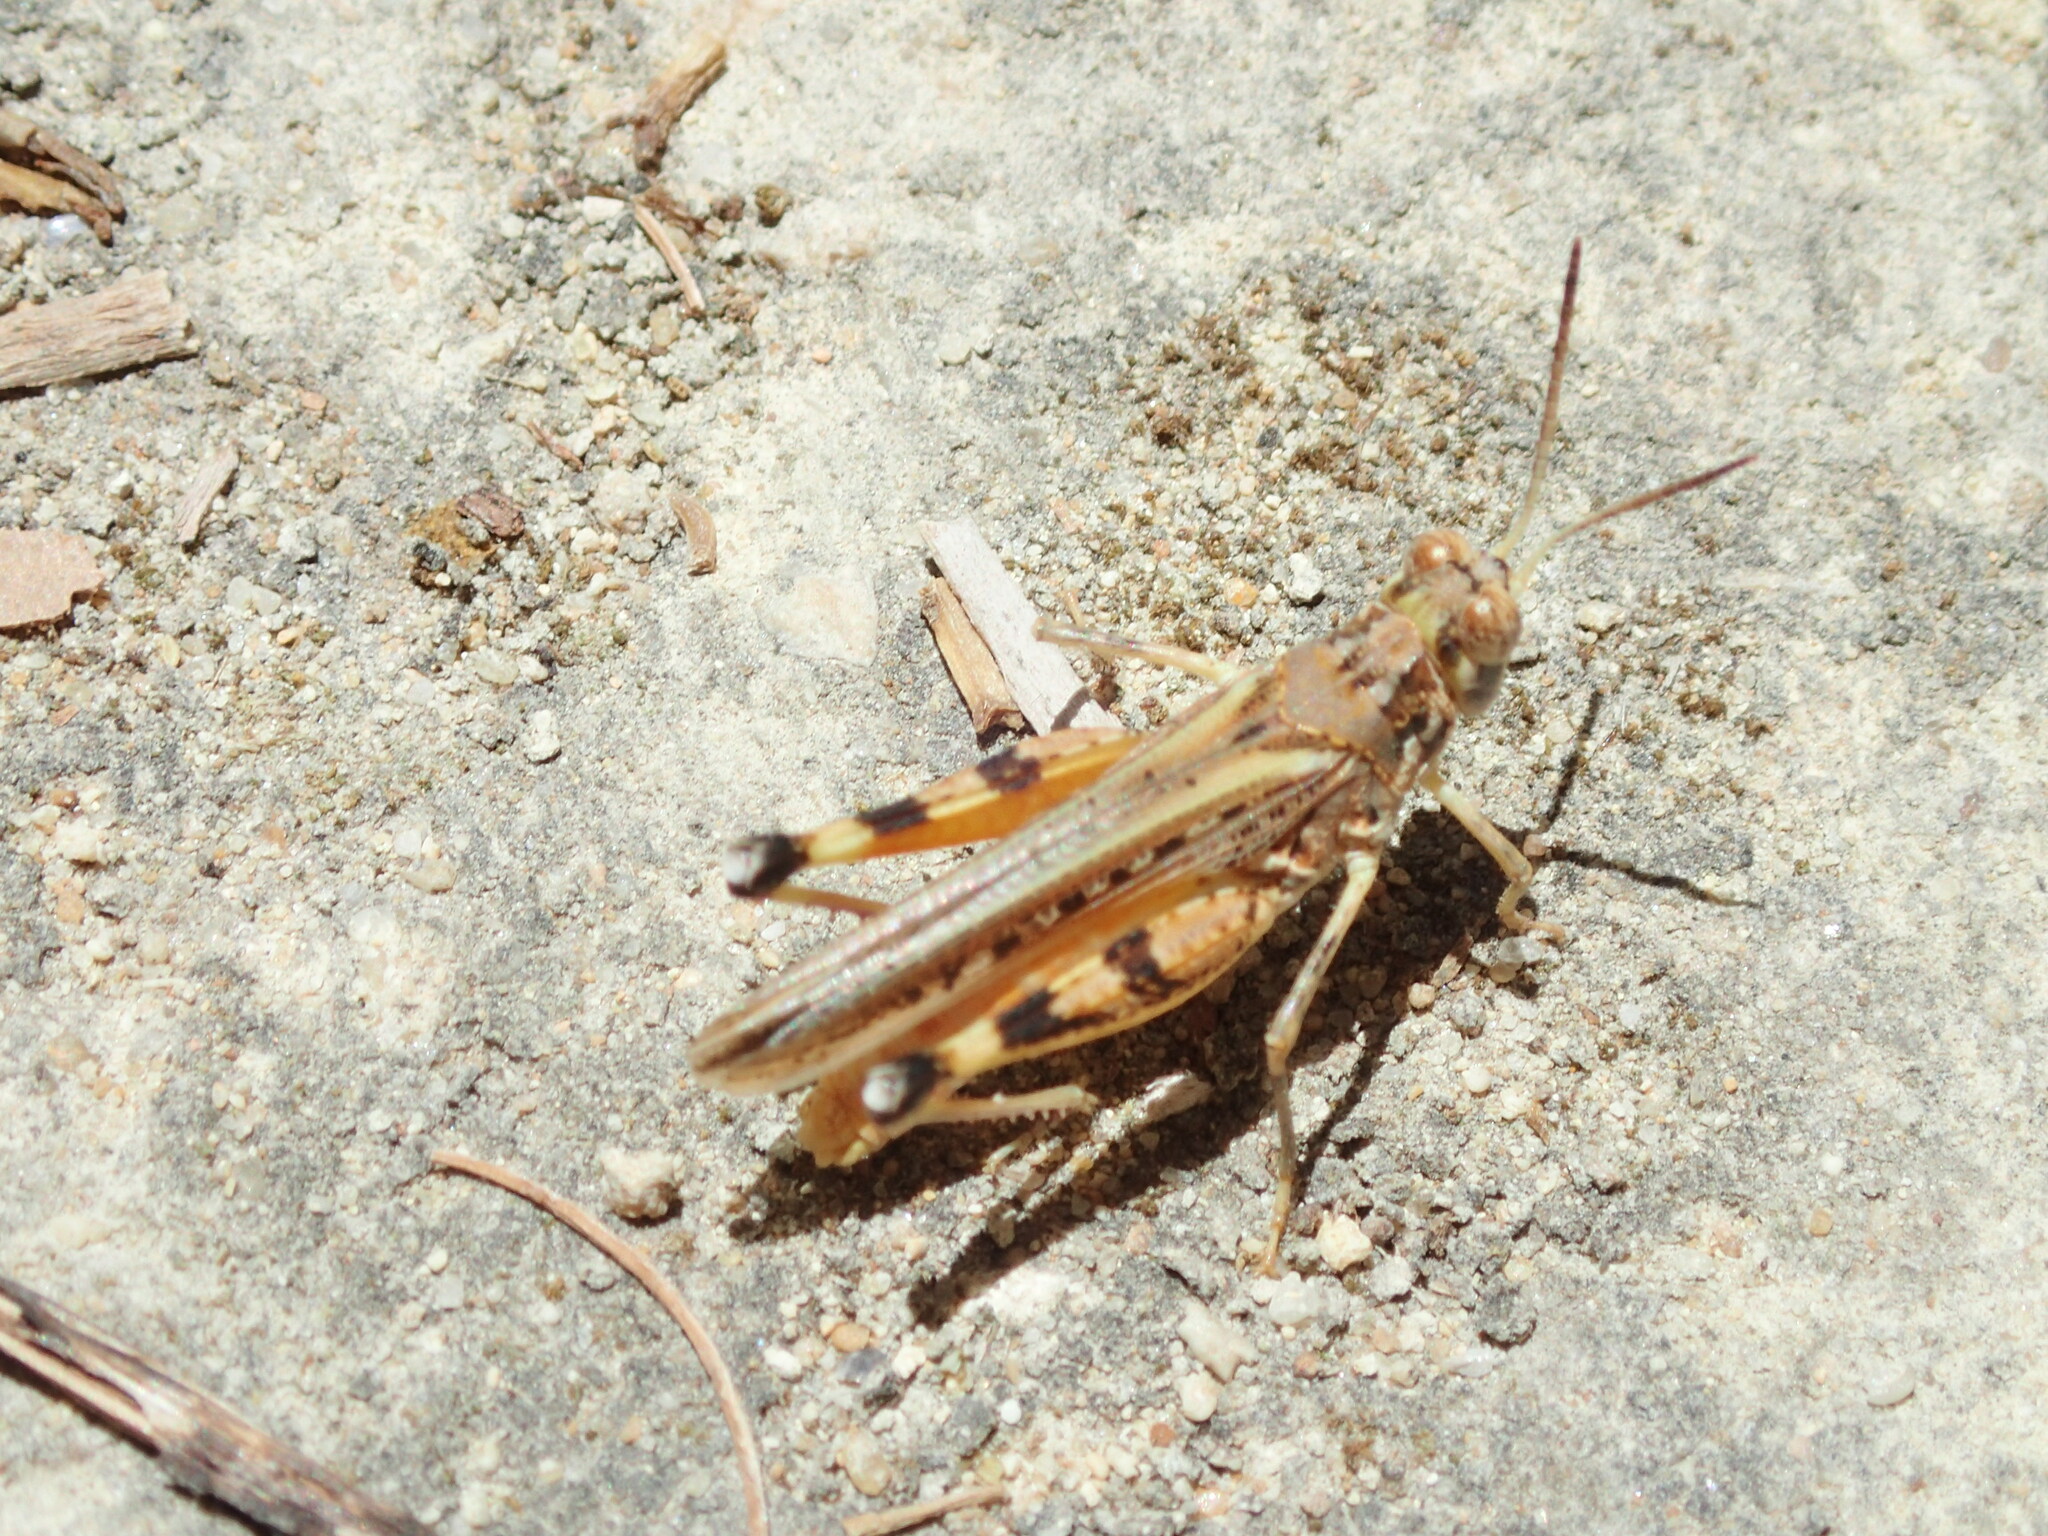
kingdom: Animalia
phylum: Arthropoda
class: Insecta
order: Orthoptera
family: Acrididae
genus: Urnisa
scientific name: Urnisa guttulosa
